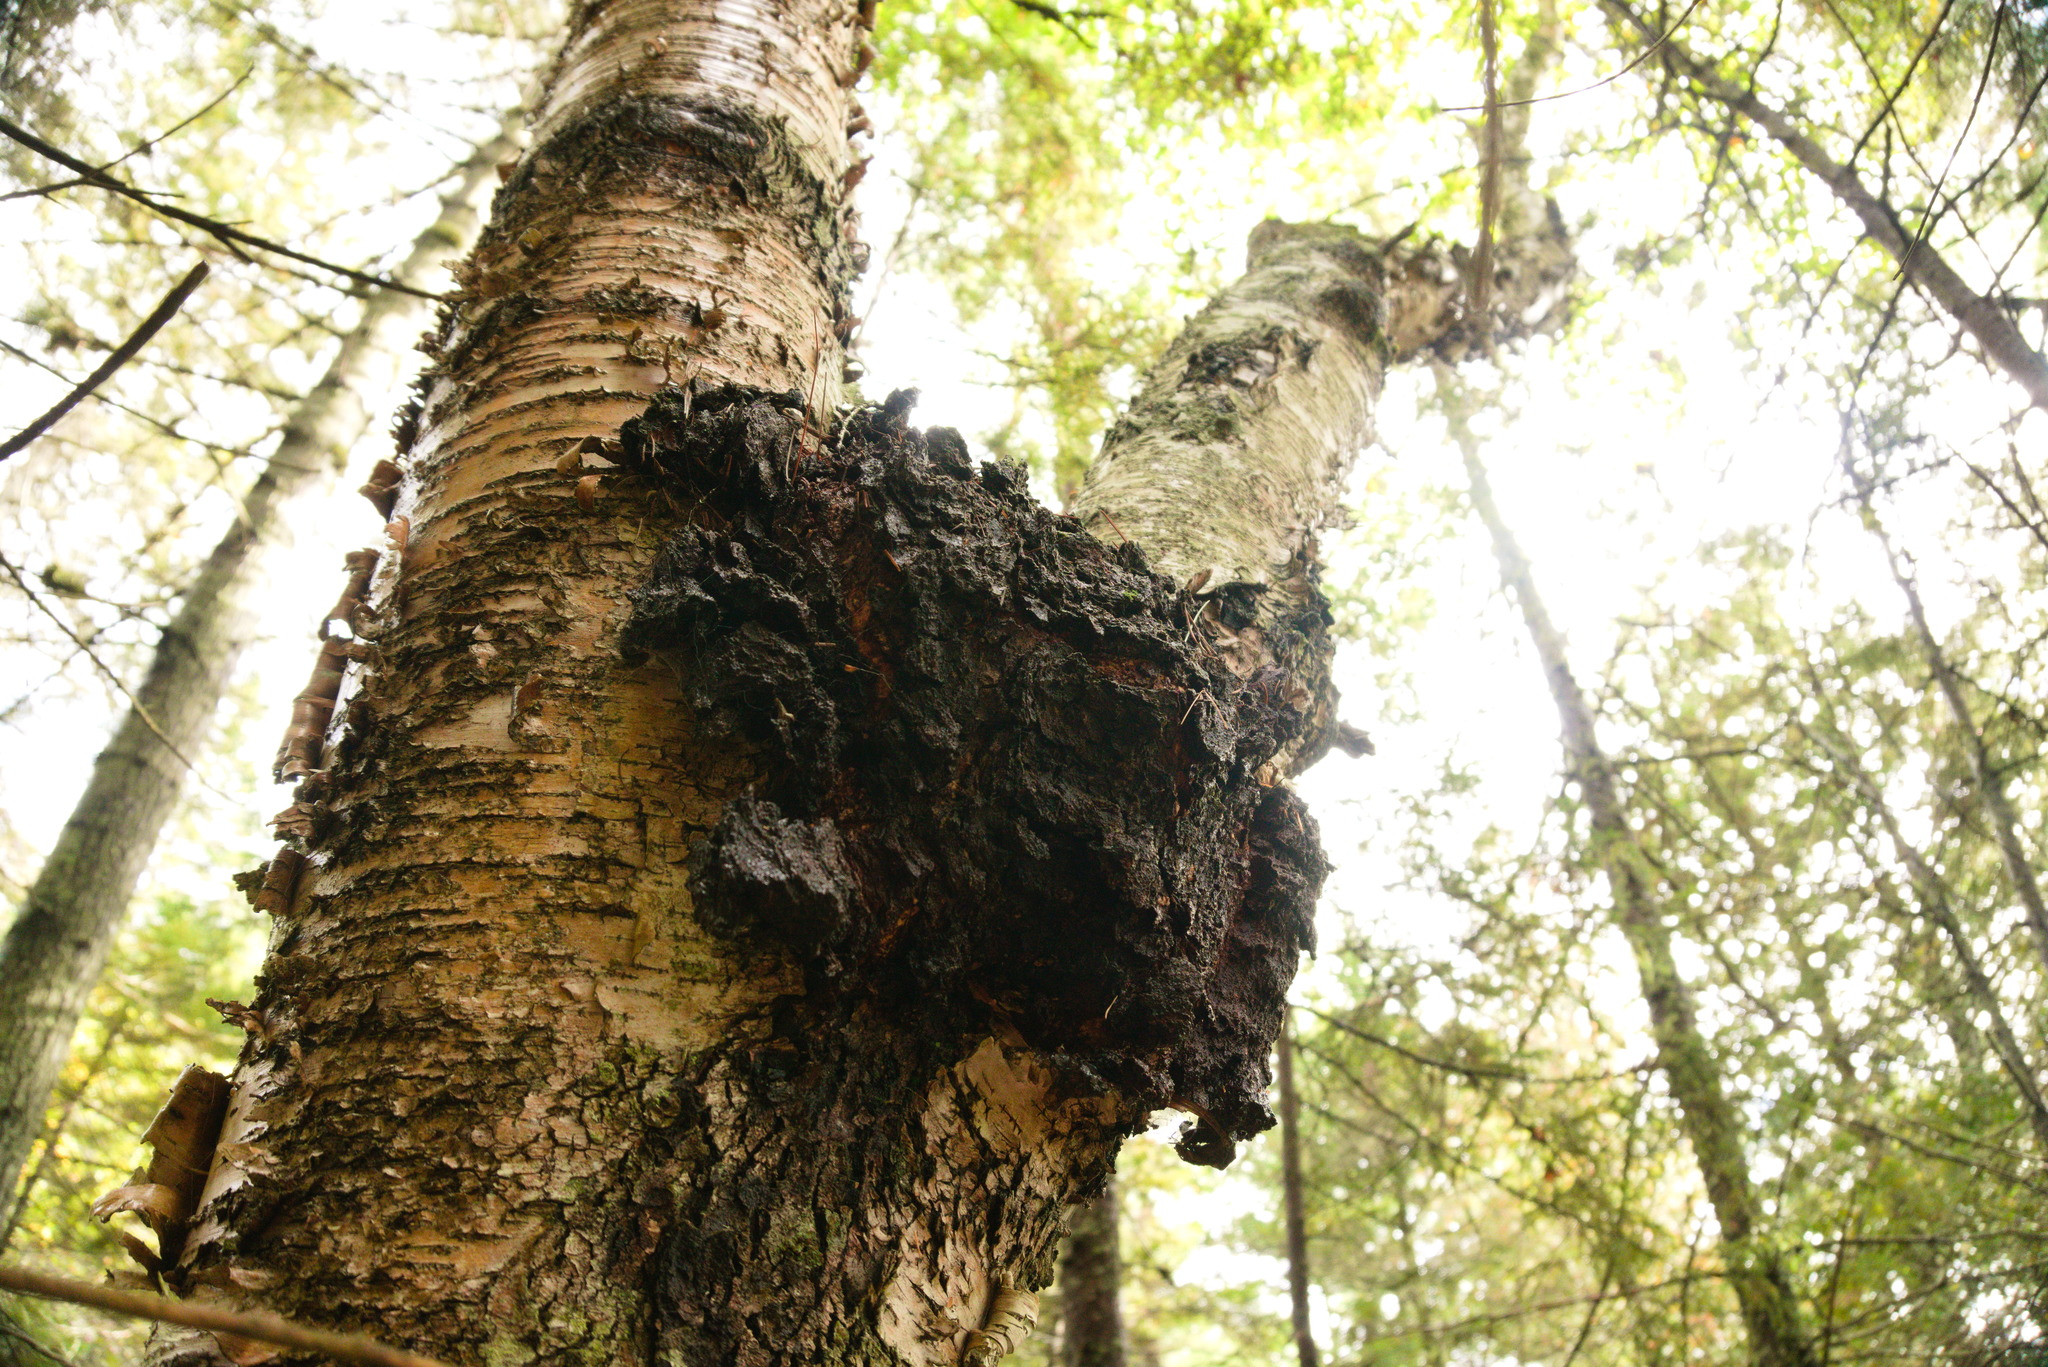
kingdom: Fungi
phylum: Basidiomycota
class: Agaricomycetes
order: Hymenochaetales
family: Hymenochaetaceae
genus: Inonotus
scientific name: Inonotus obliquus
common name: Chaga
